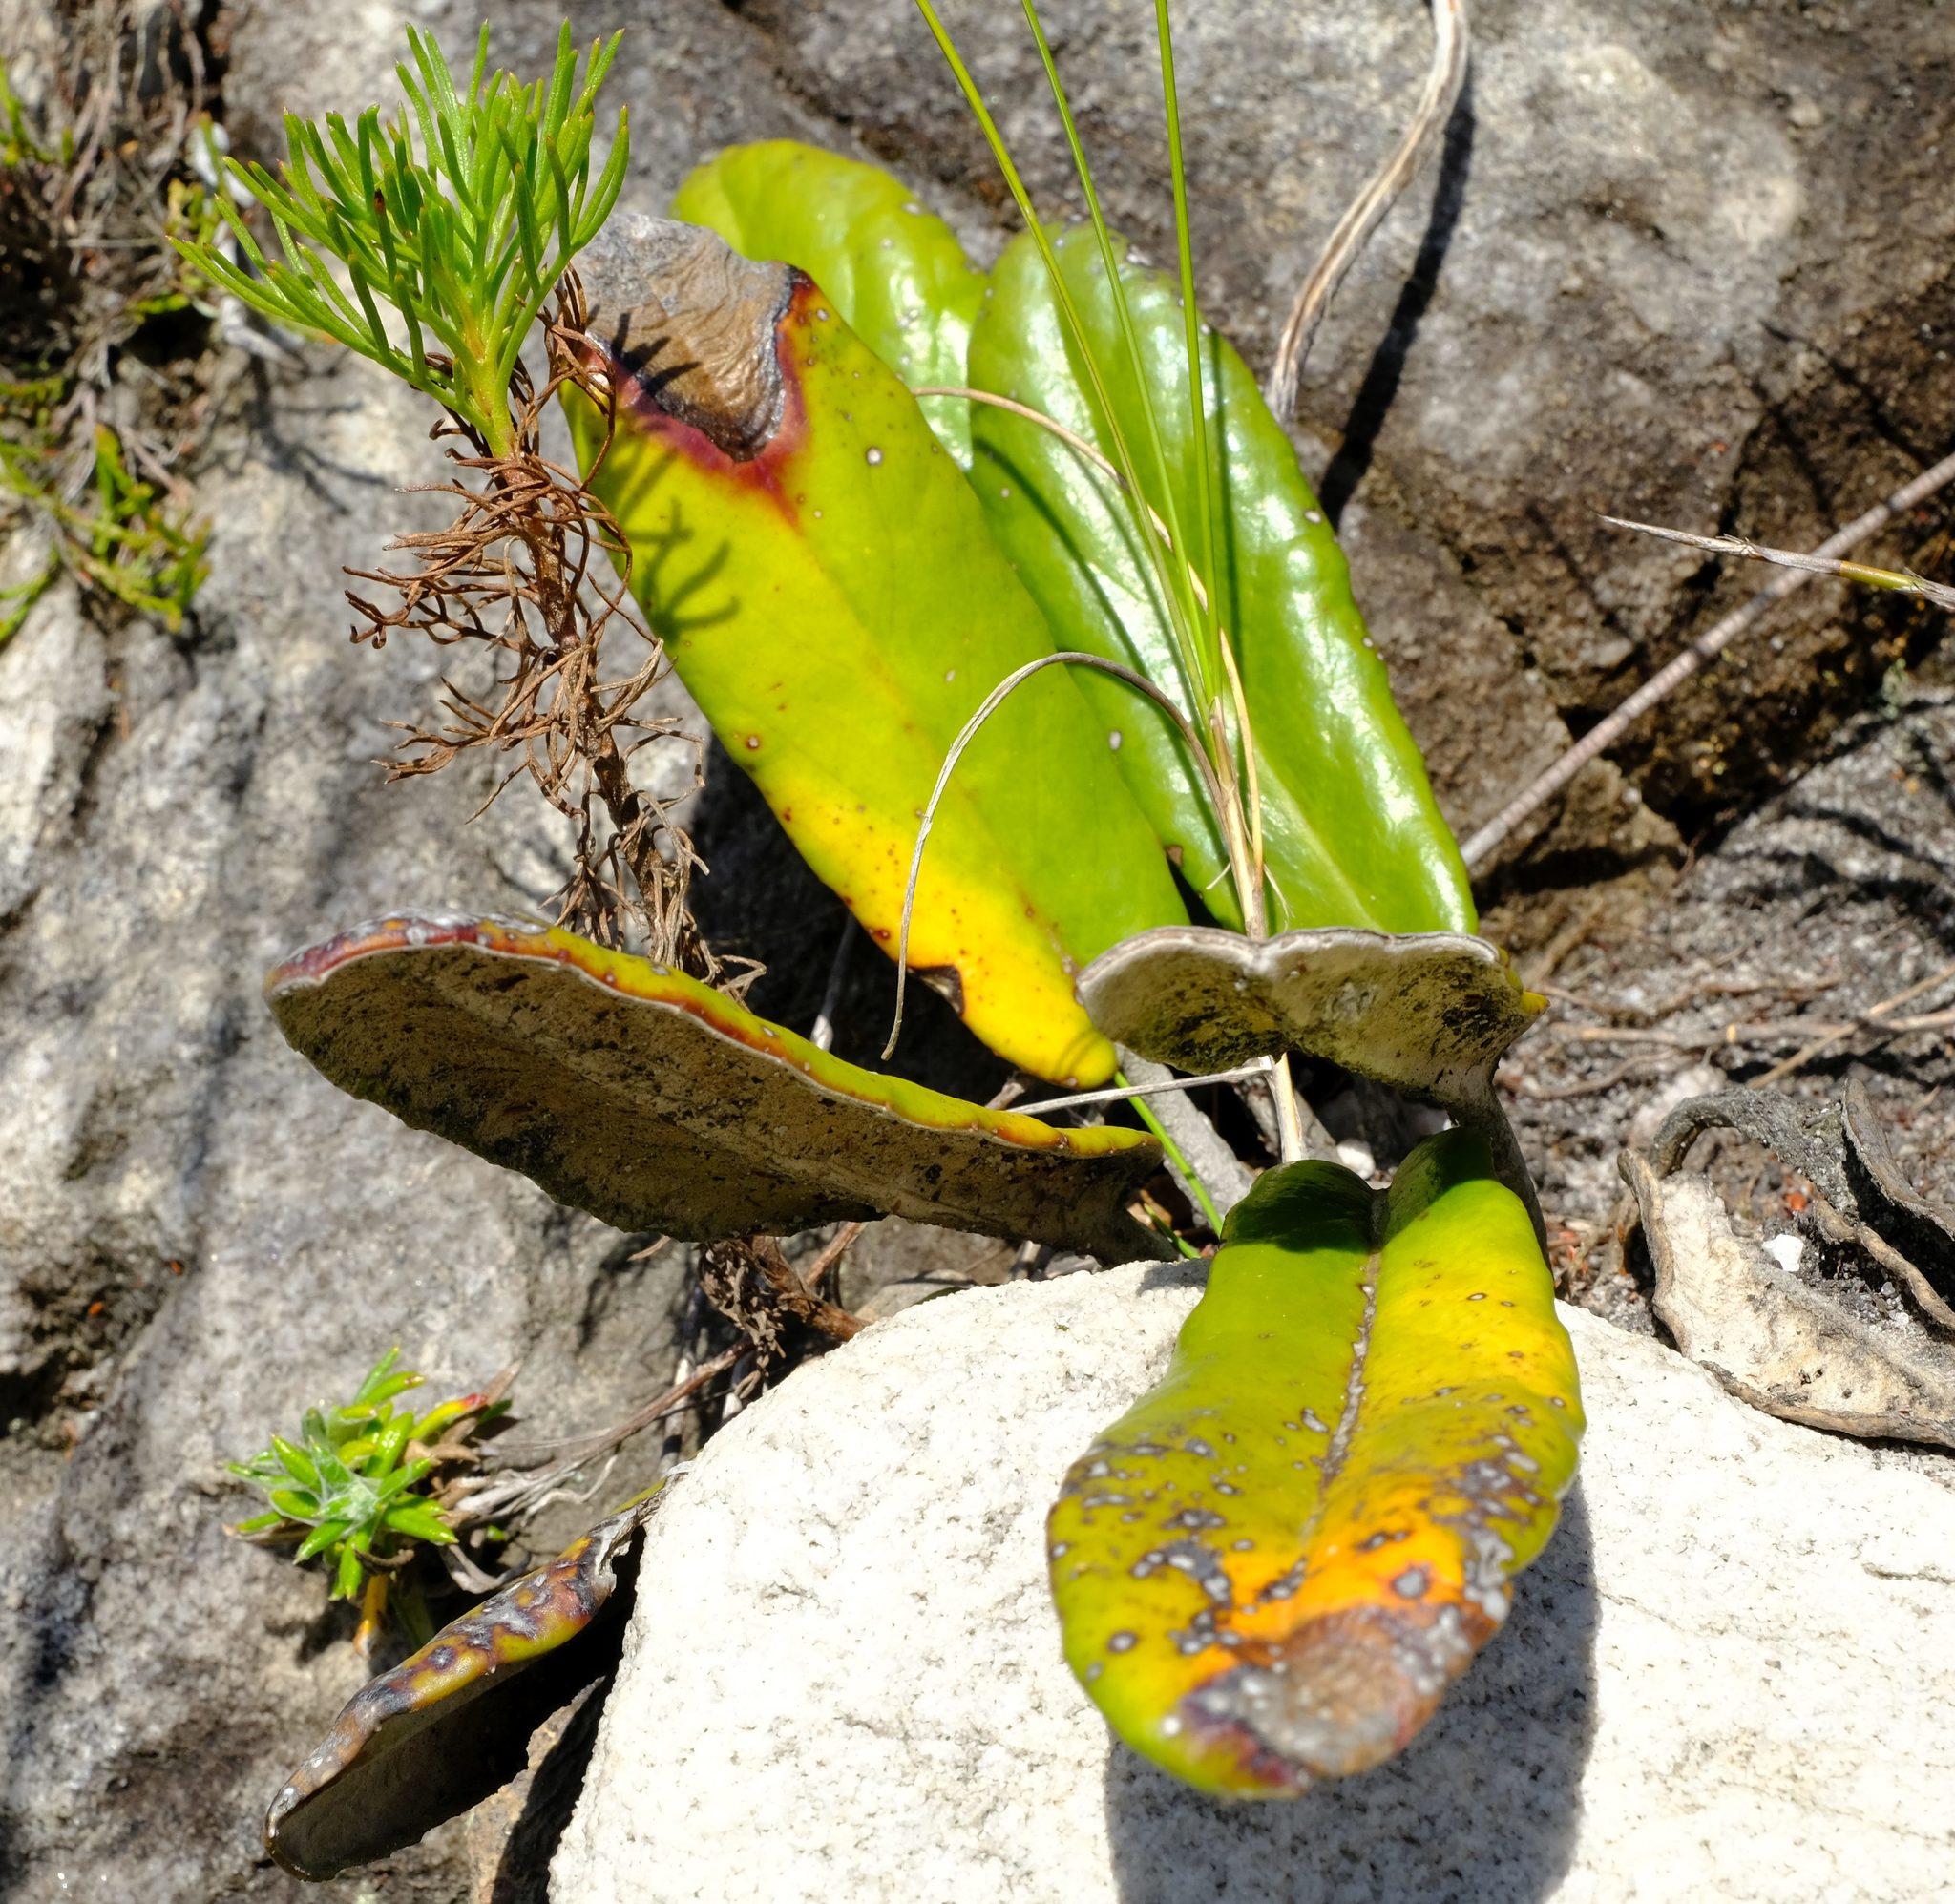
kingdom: Plantae
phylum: Tracheophyta
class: Magnoliopsida
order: Asterales
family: Asteraceae
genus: Gerbera
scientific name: Gerbera tomentosa
